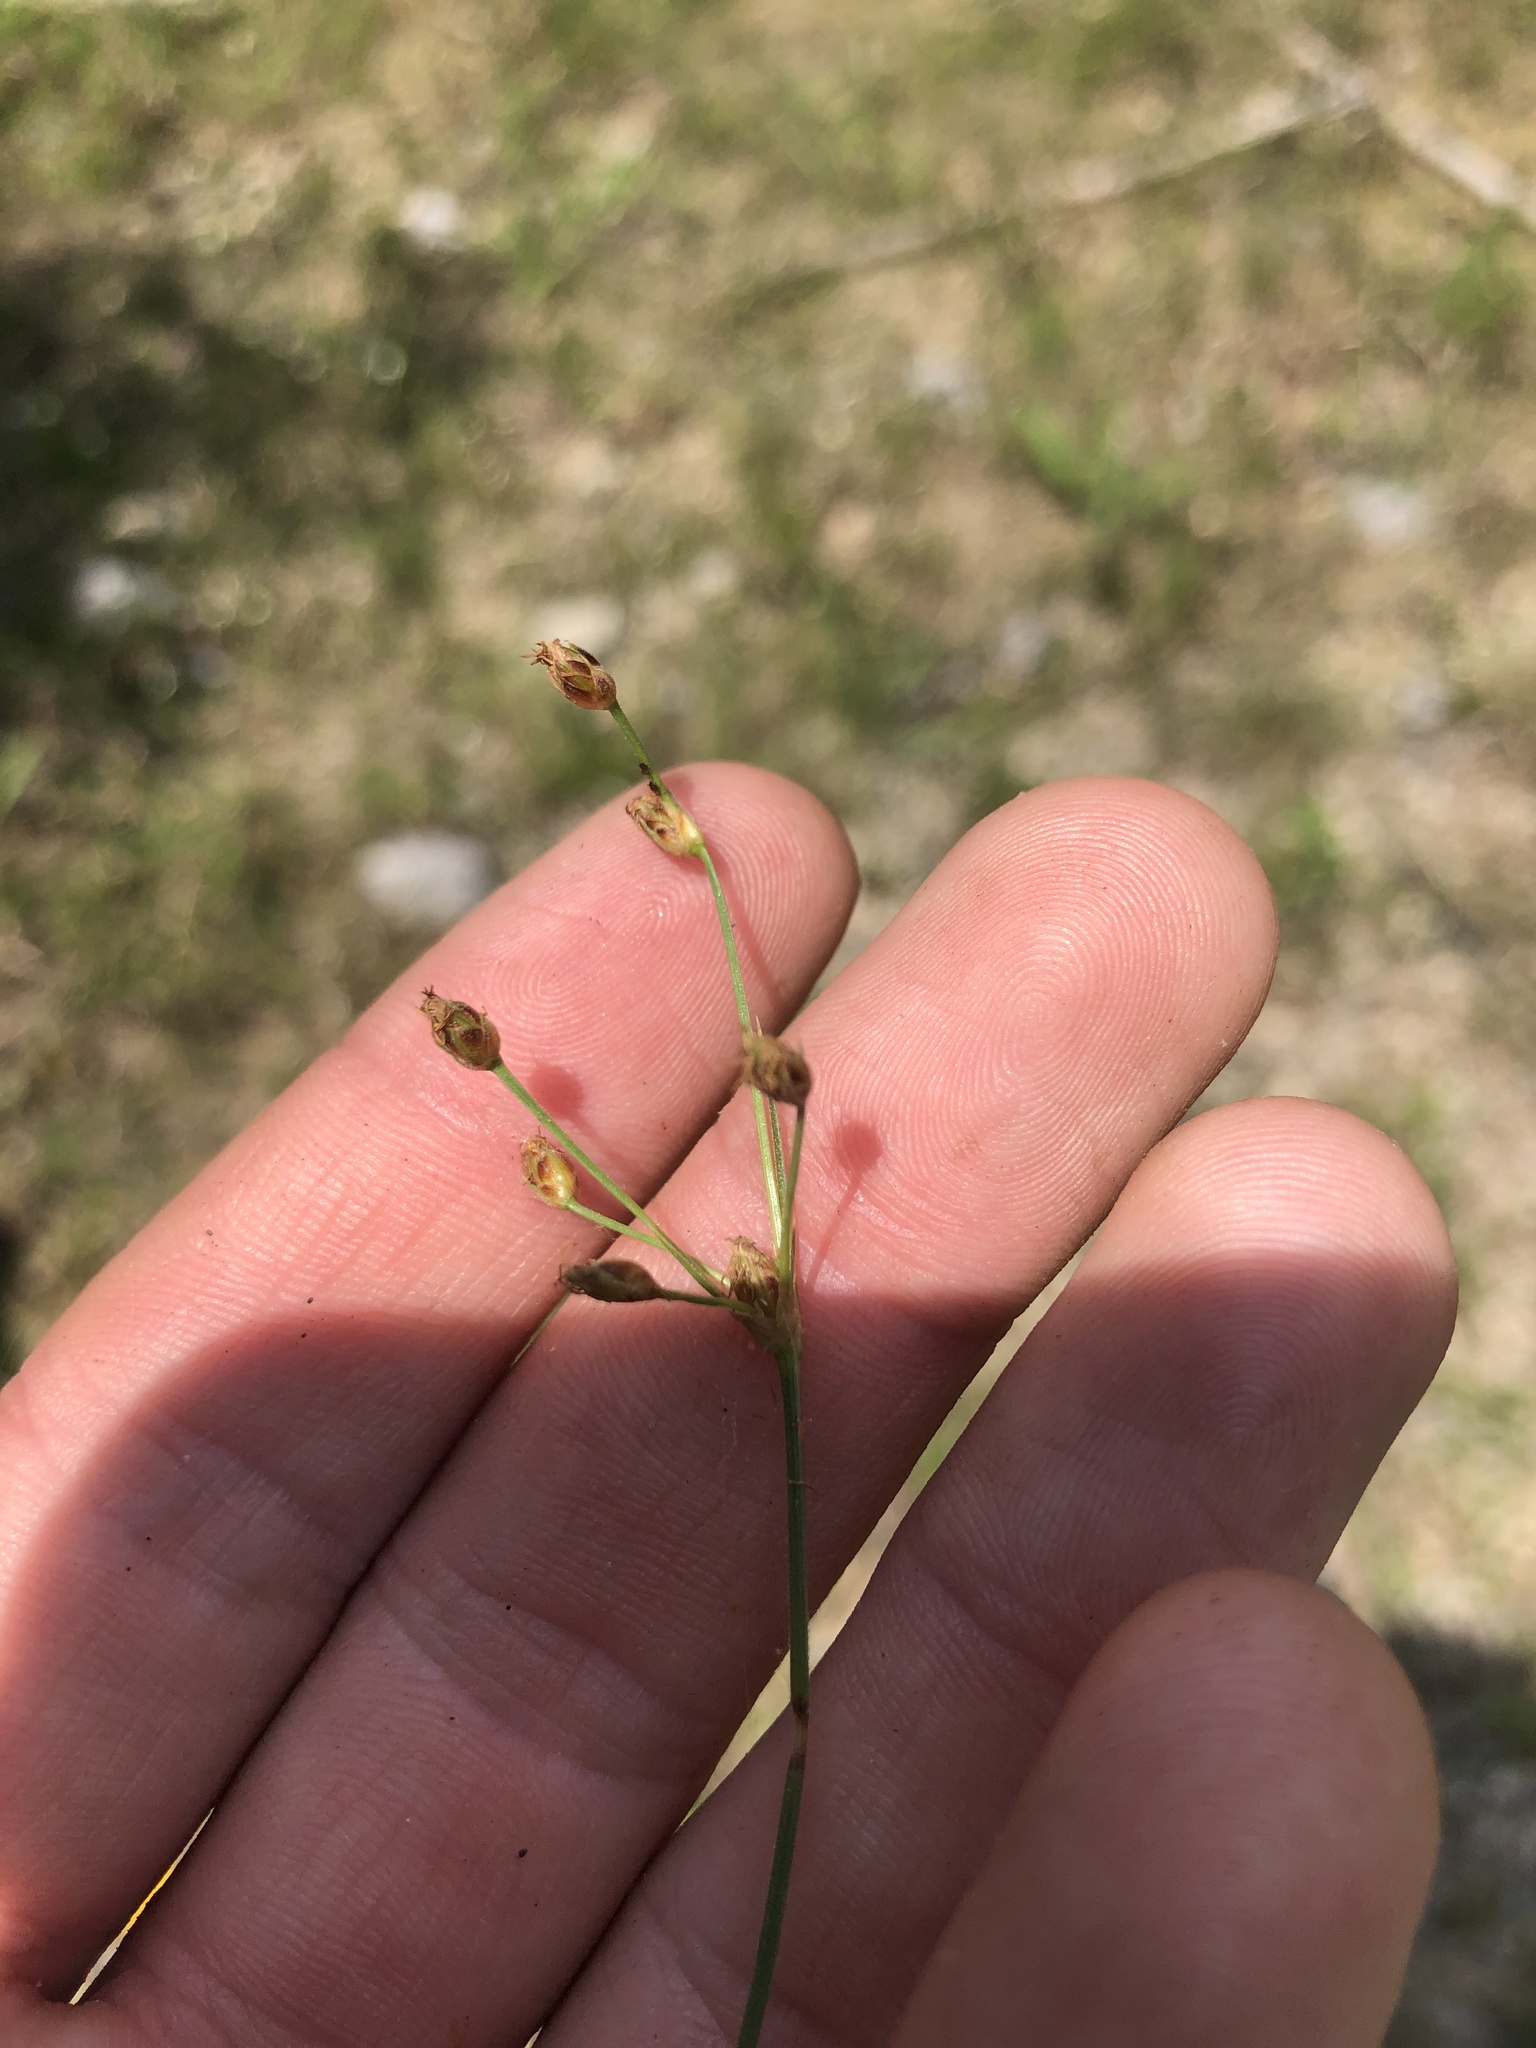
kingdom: Plantae
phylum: Tracheophyta
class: Liliopsida
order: Poales
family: Cyperaceae
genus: Fimbristylis
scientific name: Fimbristylis puberula
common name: Hairy fimbristylis
